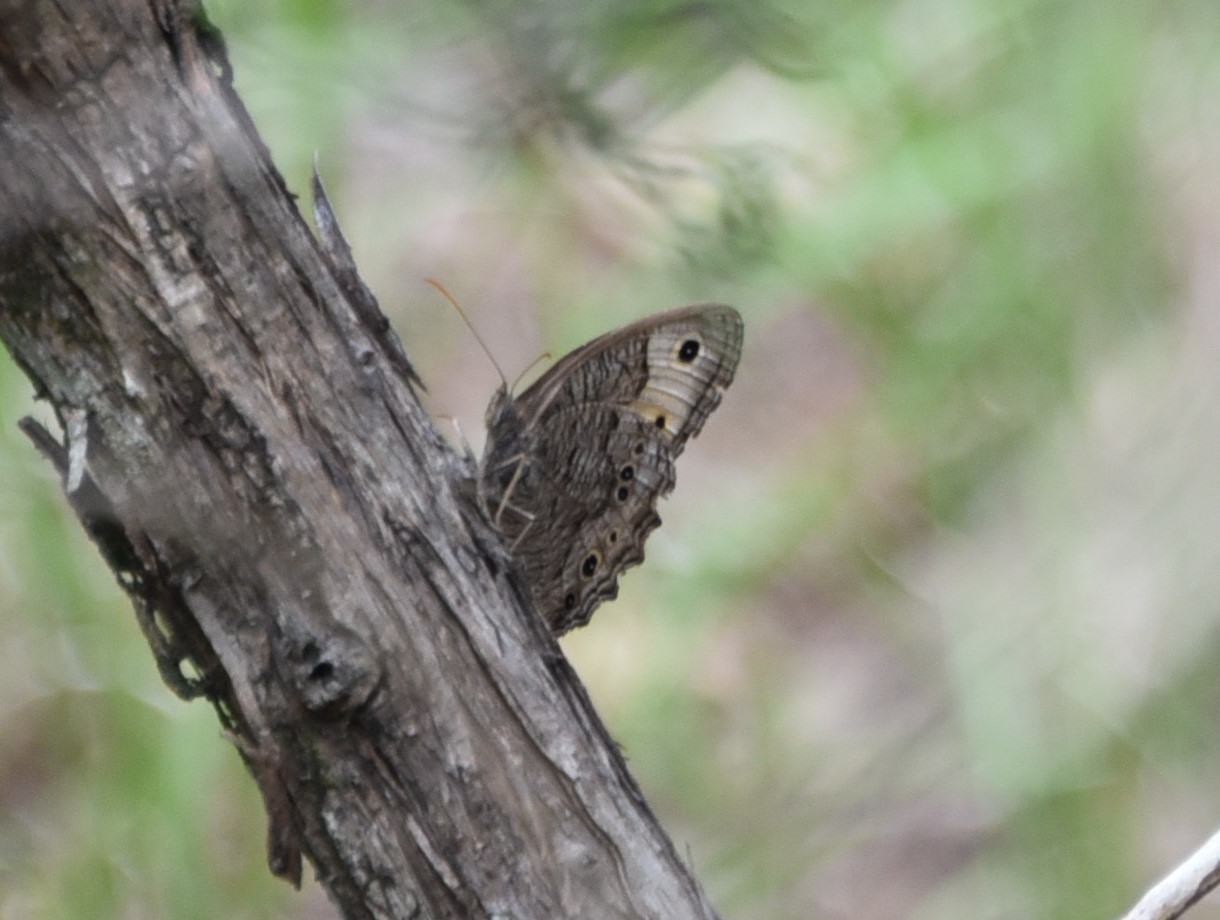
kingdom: Animalia
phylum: Arthropoda
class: Insecta
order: Lepidoptera
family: Nymphalidae
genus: Cercyonis
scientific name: Cercyonis pegala
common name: Common wood-nymph
